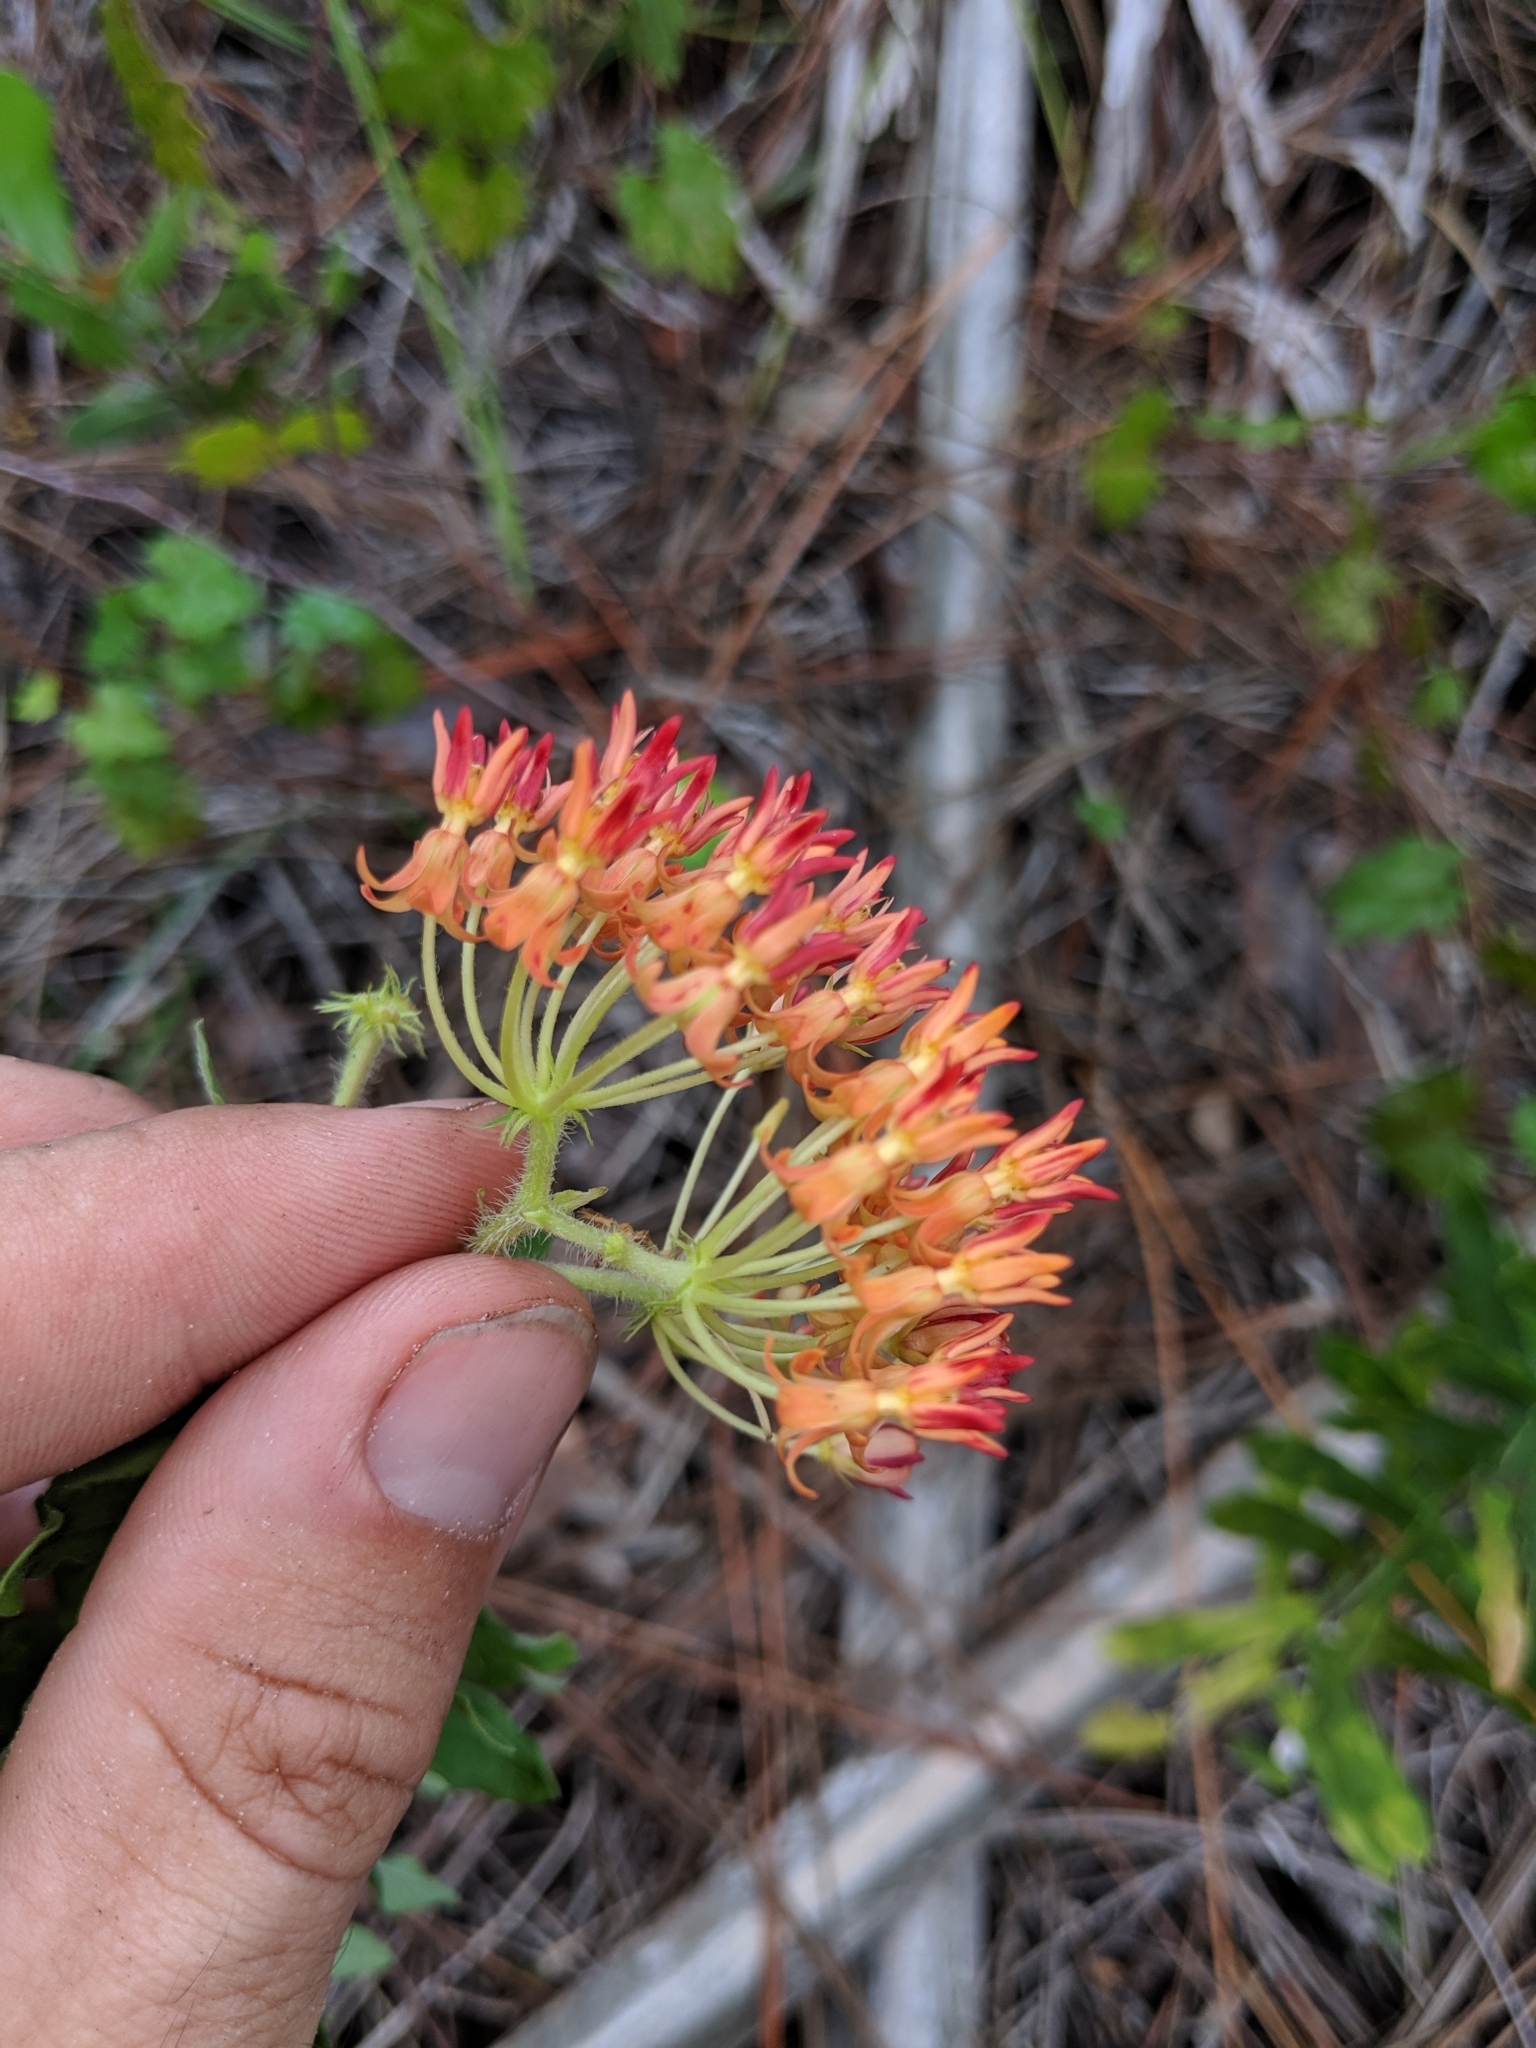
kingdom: Plantae
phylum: Tracheophyta
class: Magnoliopsida
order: Gentianales
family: Apocynaceae
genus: Asclepias
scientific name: Asclepias tuberosa
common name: Butterfly milkweed
